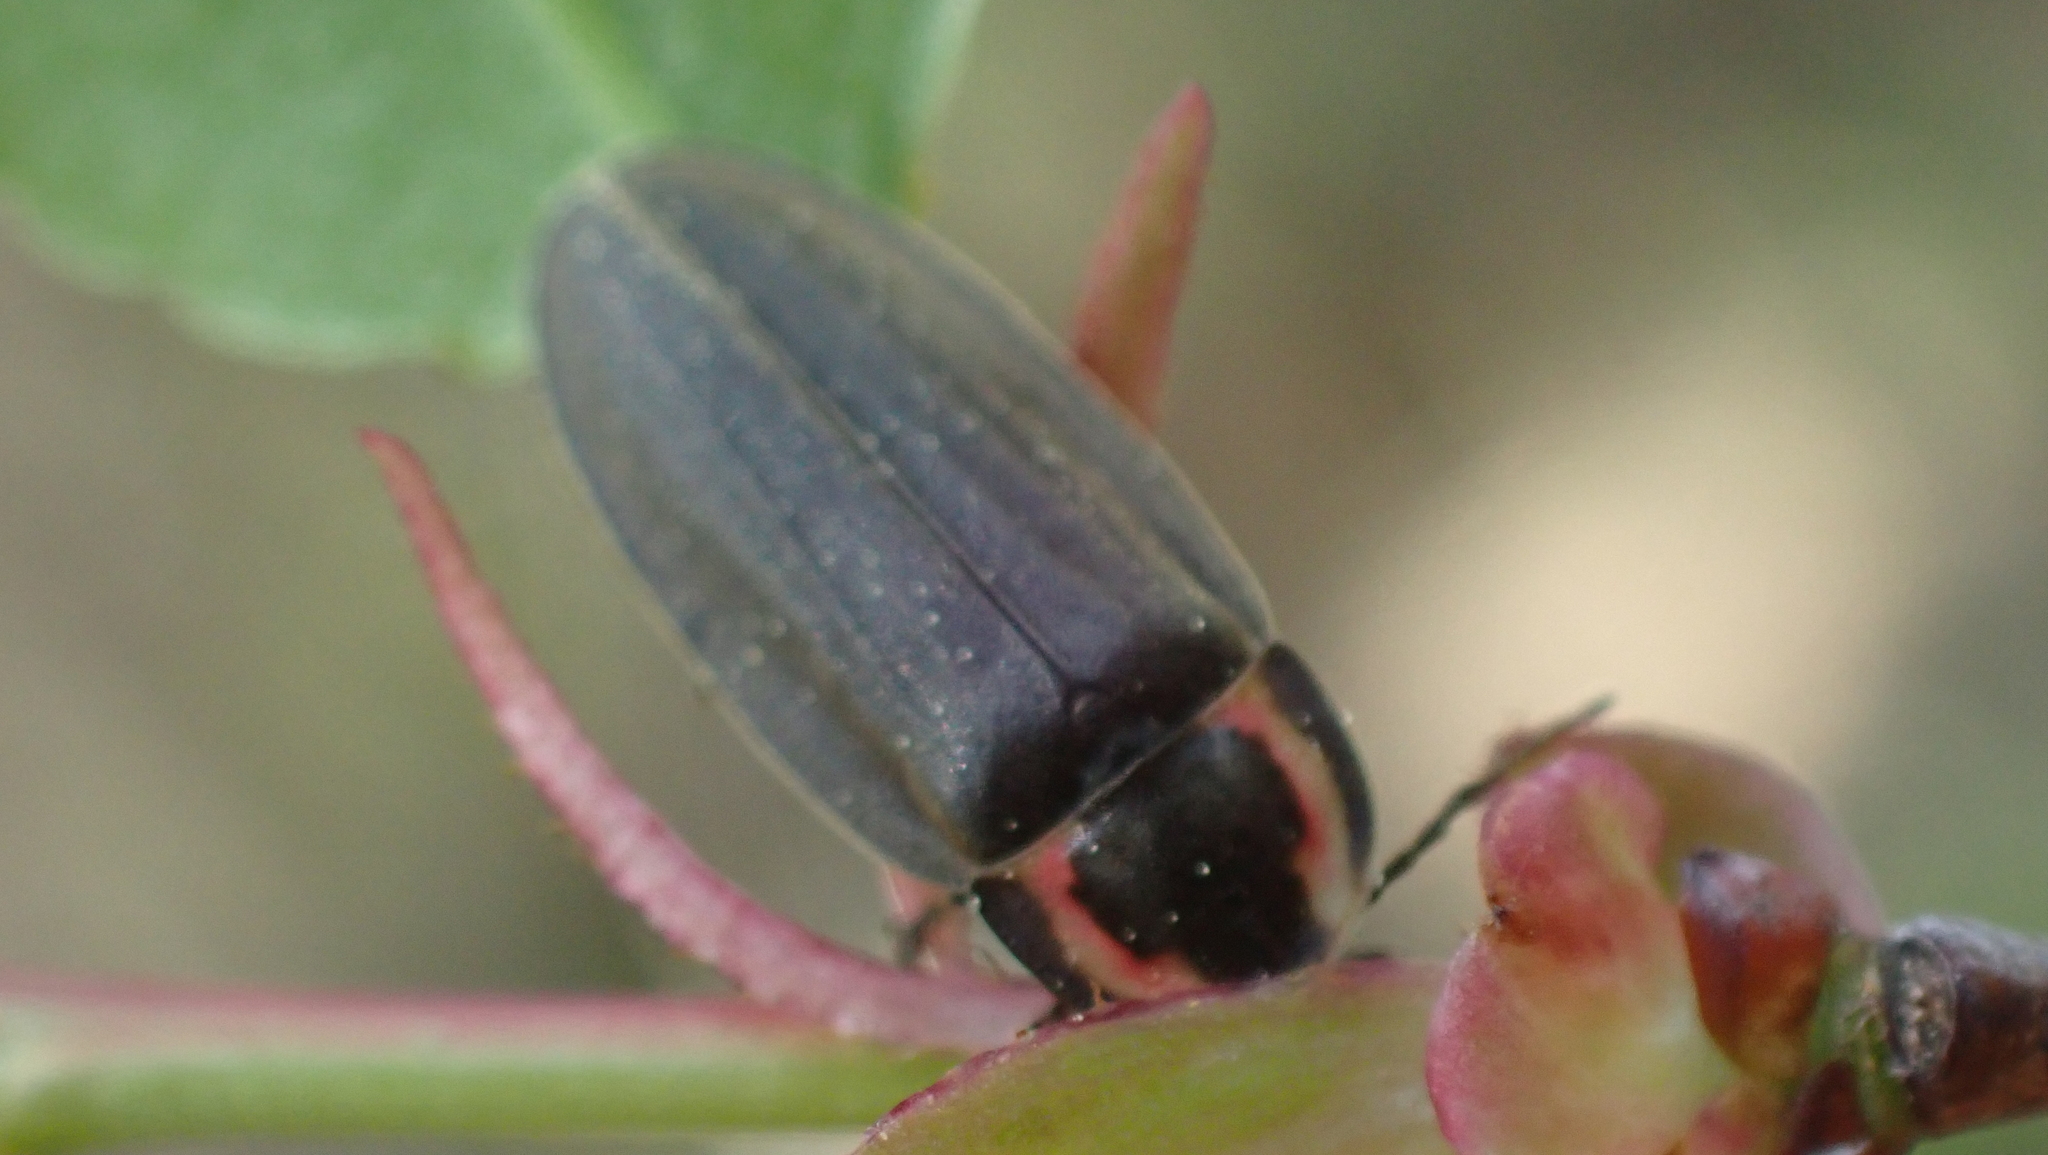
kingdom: Animalia
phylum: Arthropoda
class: Insecta
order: Coleoptera
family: Lampyridae
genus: Photinus
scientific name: Photinus corrusca
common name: Winter firefly
